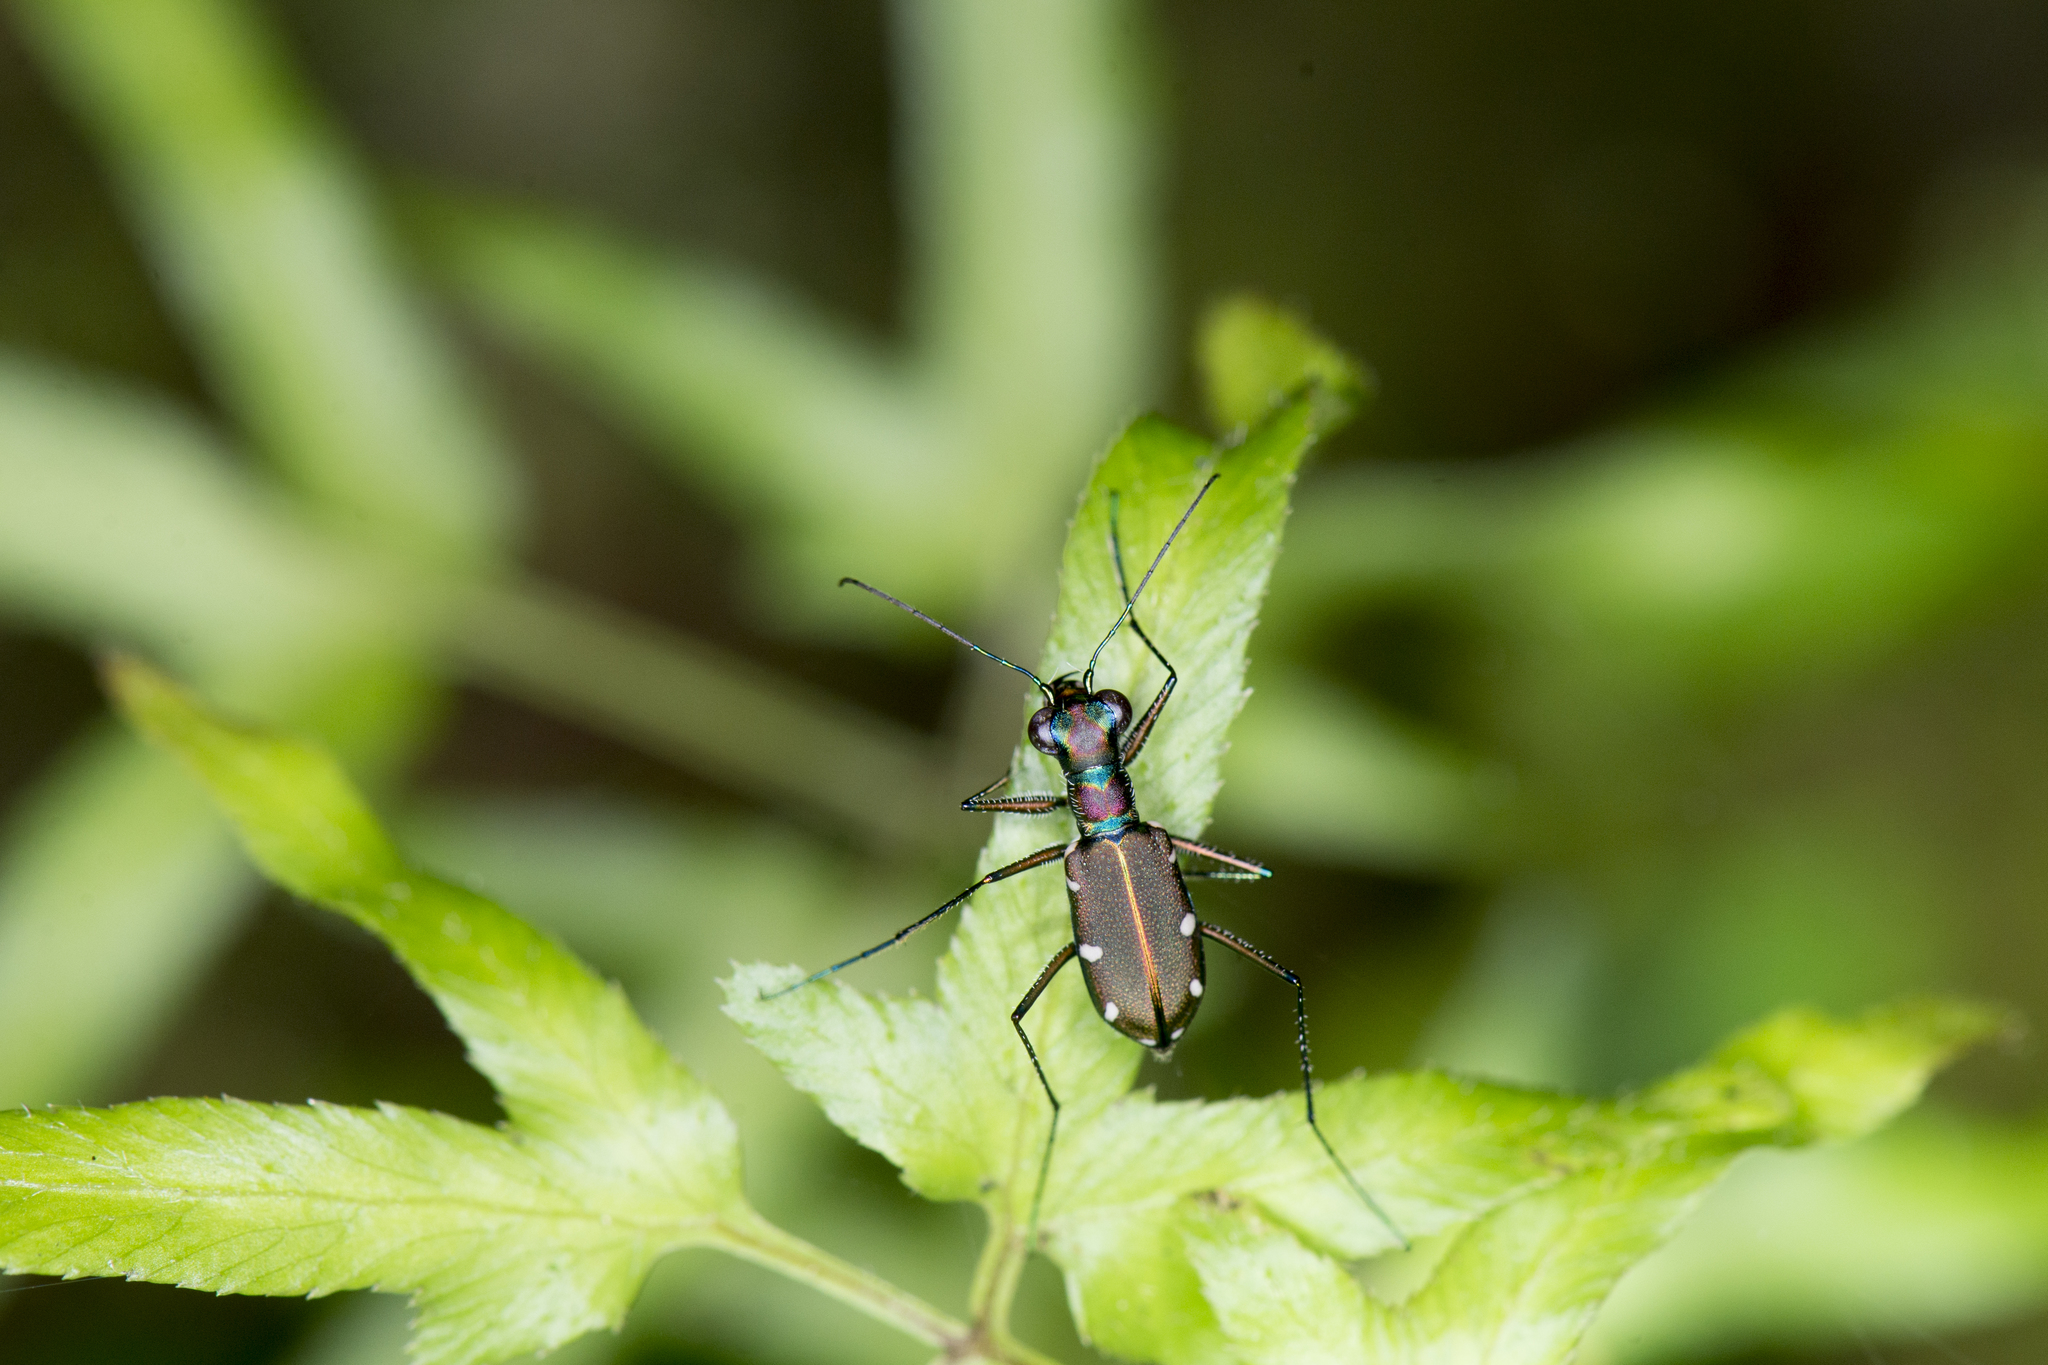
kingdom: Animalia
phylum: Arthropoda
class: Insecta
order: Coleoptera
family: Carabidae
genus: Cylindera
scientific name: Cylindera psilica
